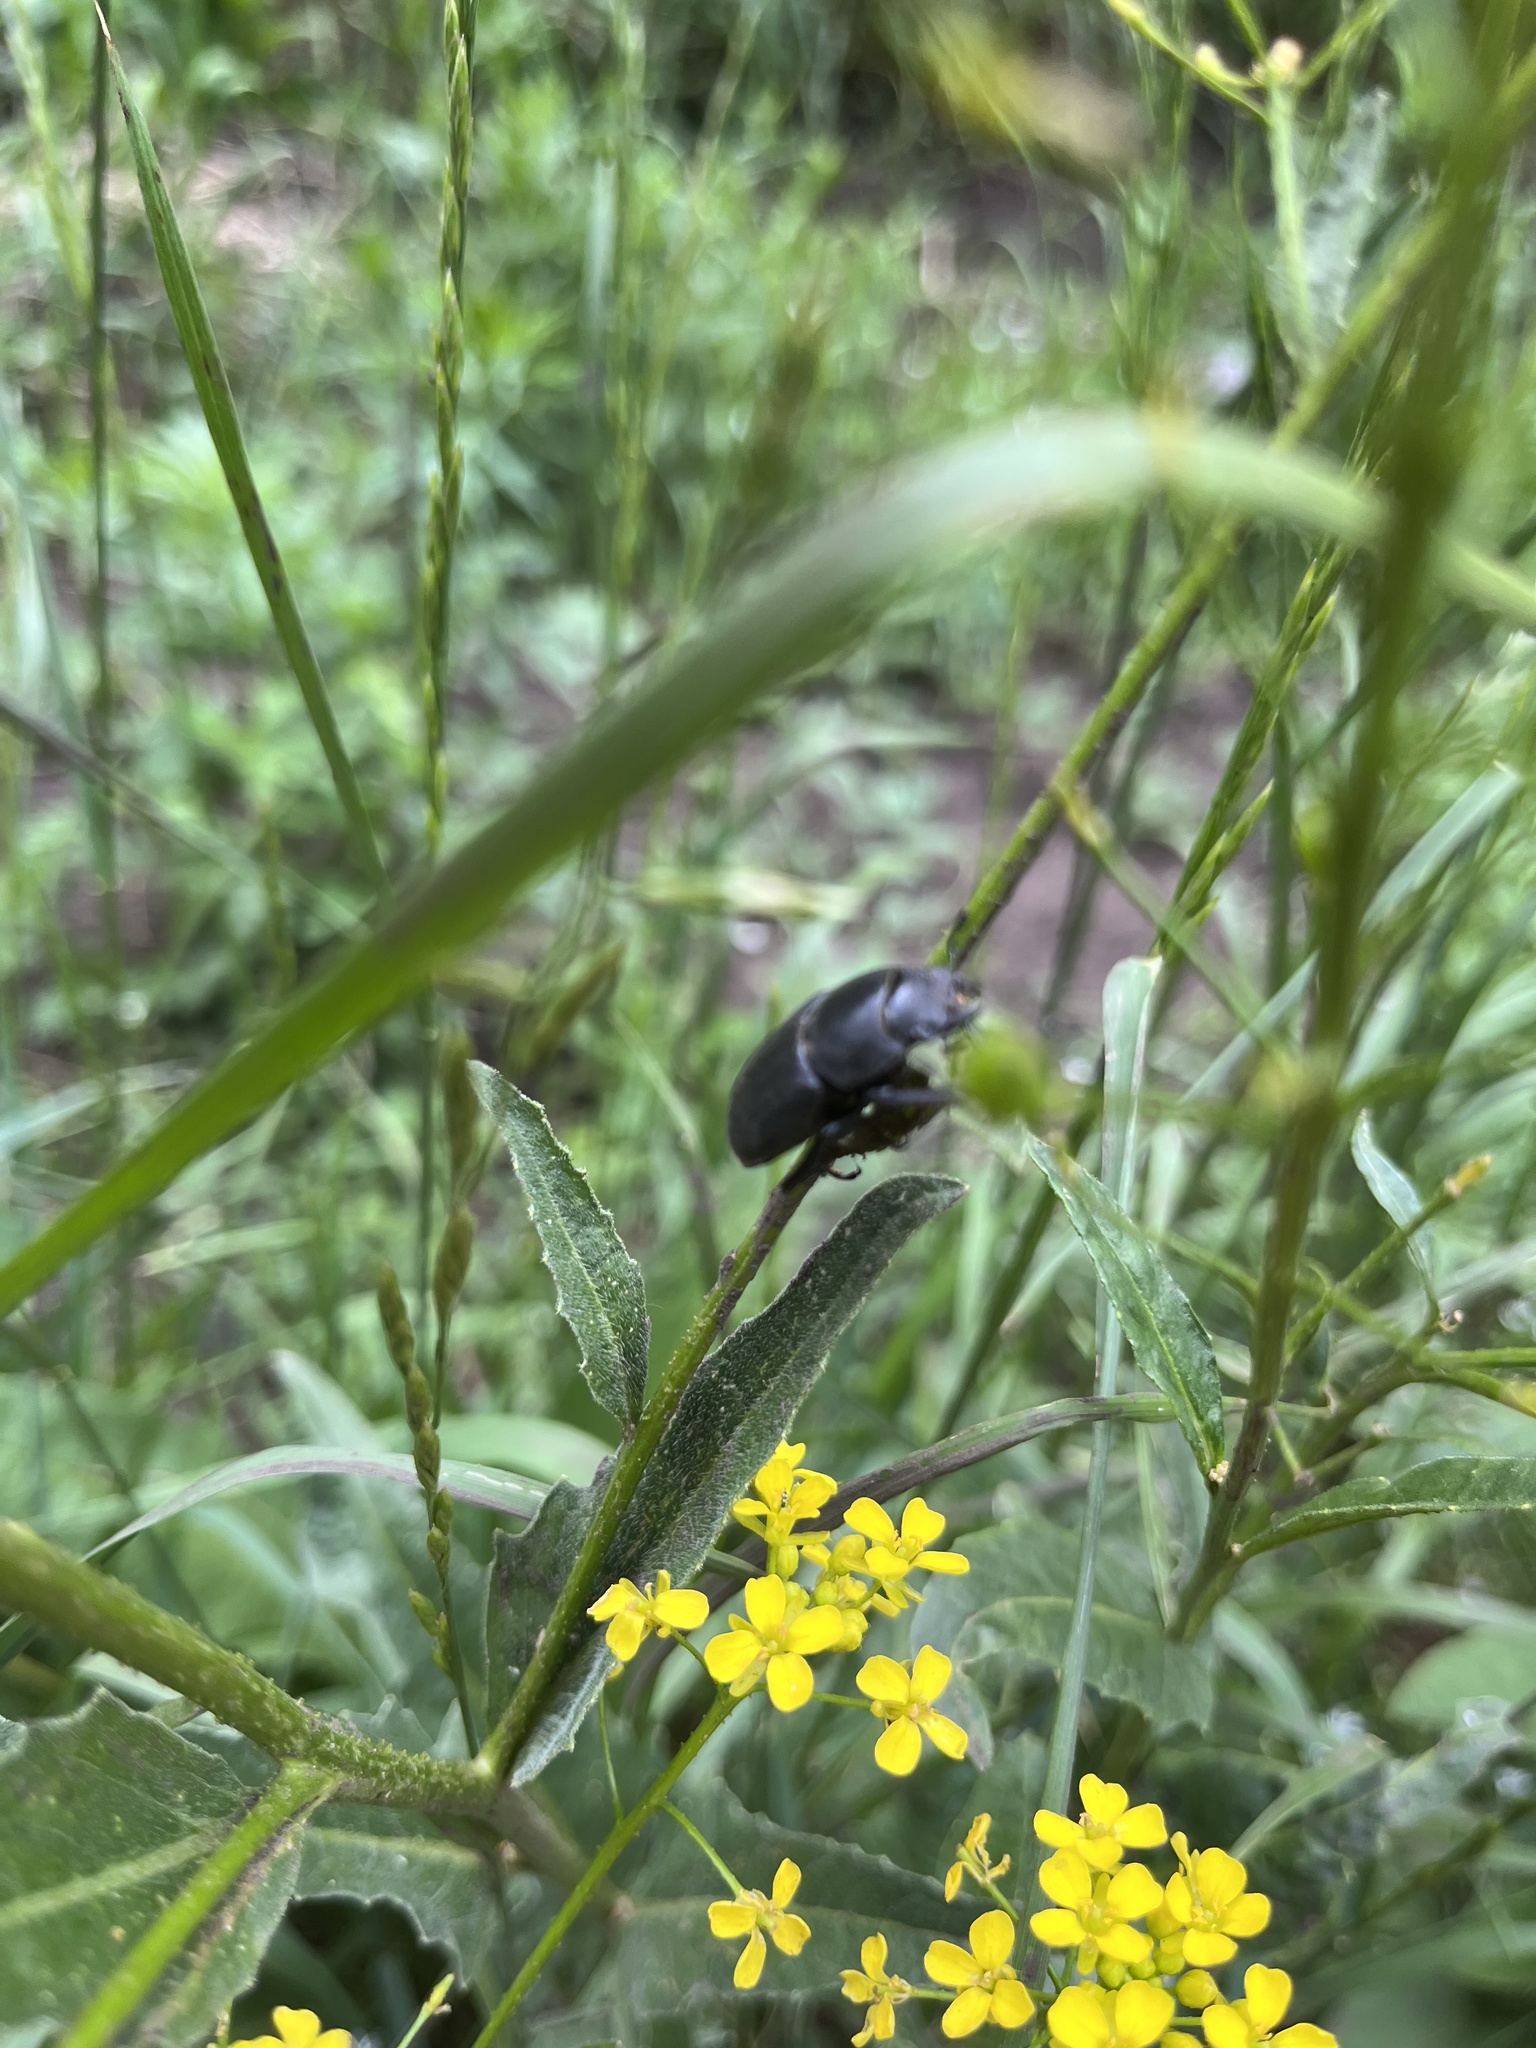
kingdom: Animalia
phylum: Arthropoda
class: Insecta
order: Coleoptera
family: Lucanidae
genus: Dorcus
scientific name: Dorcus parallelipipedus
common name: Lesser stag beetle
